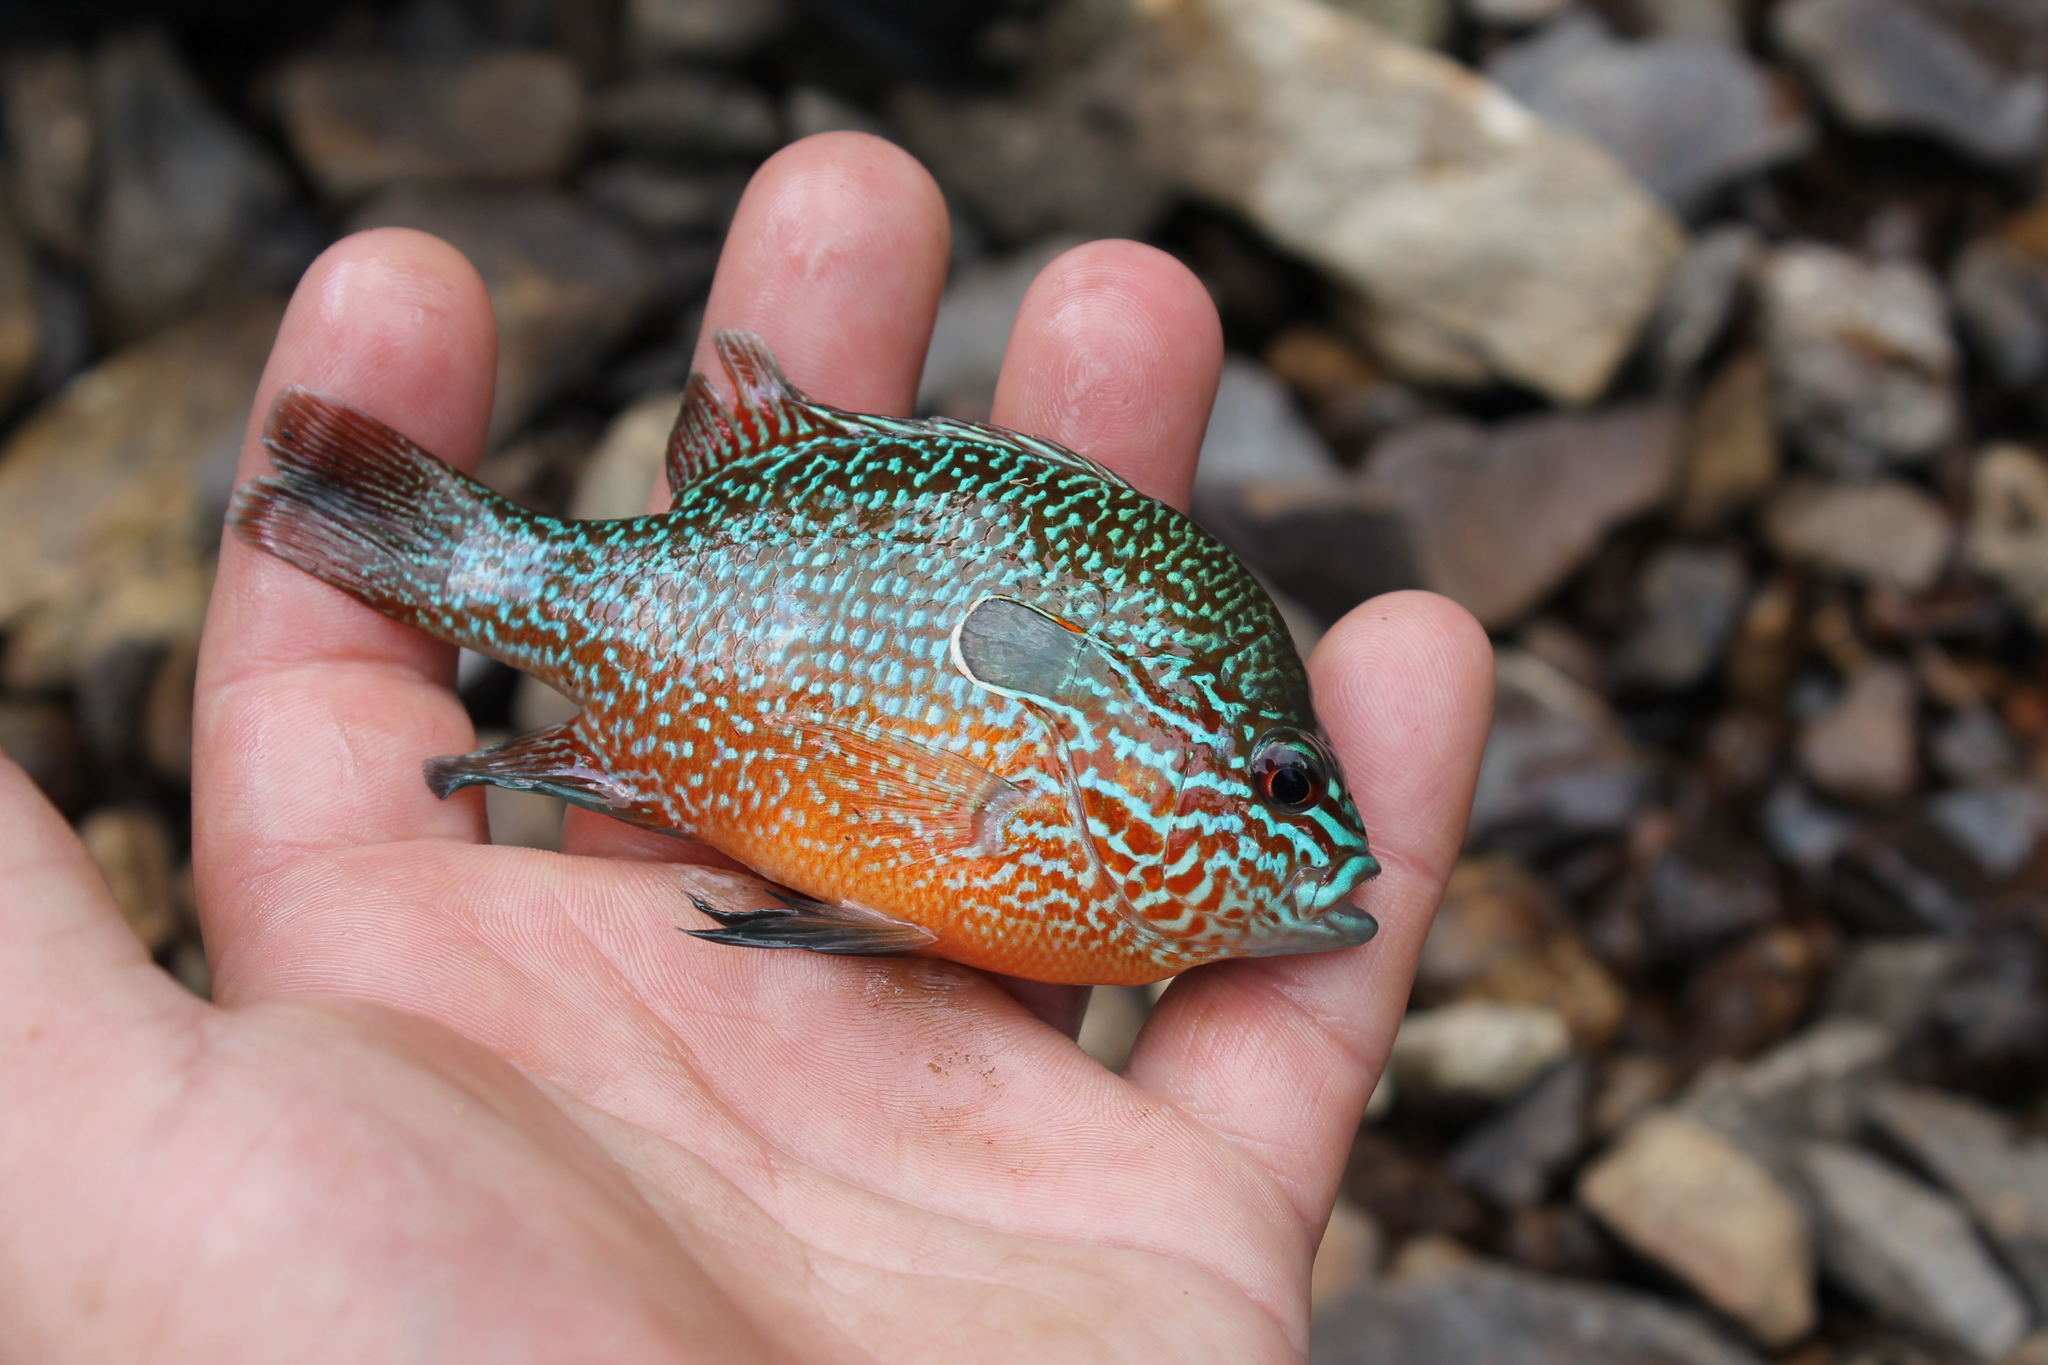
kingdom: Animalia
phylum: Chordata
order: Perciformes
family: Centrarchidae
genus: Lepomis
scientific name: Lepomis megalotis
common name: Longear sunfish
